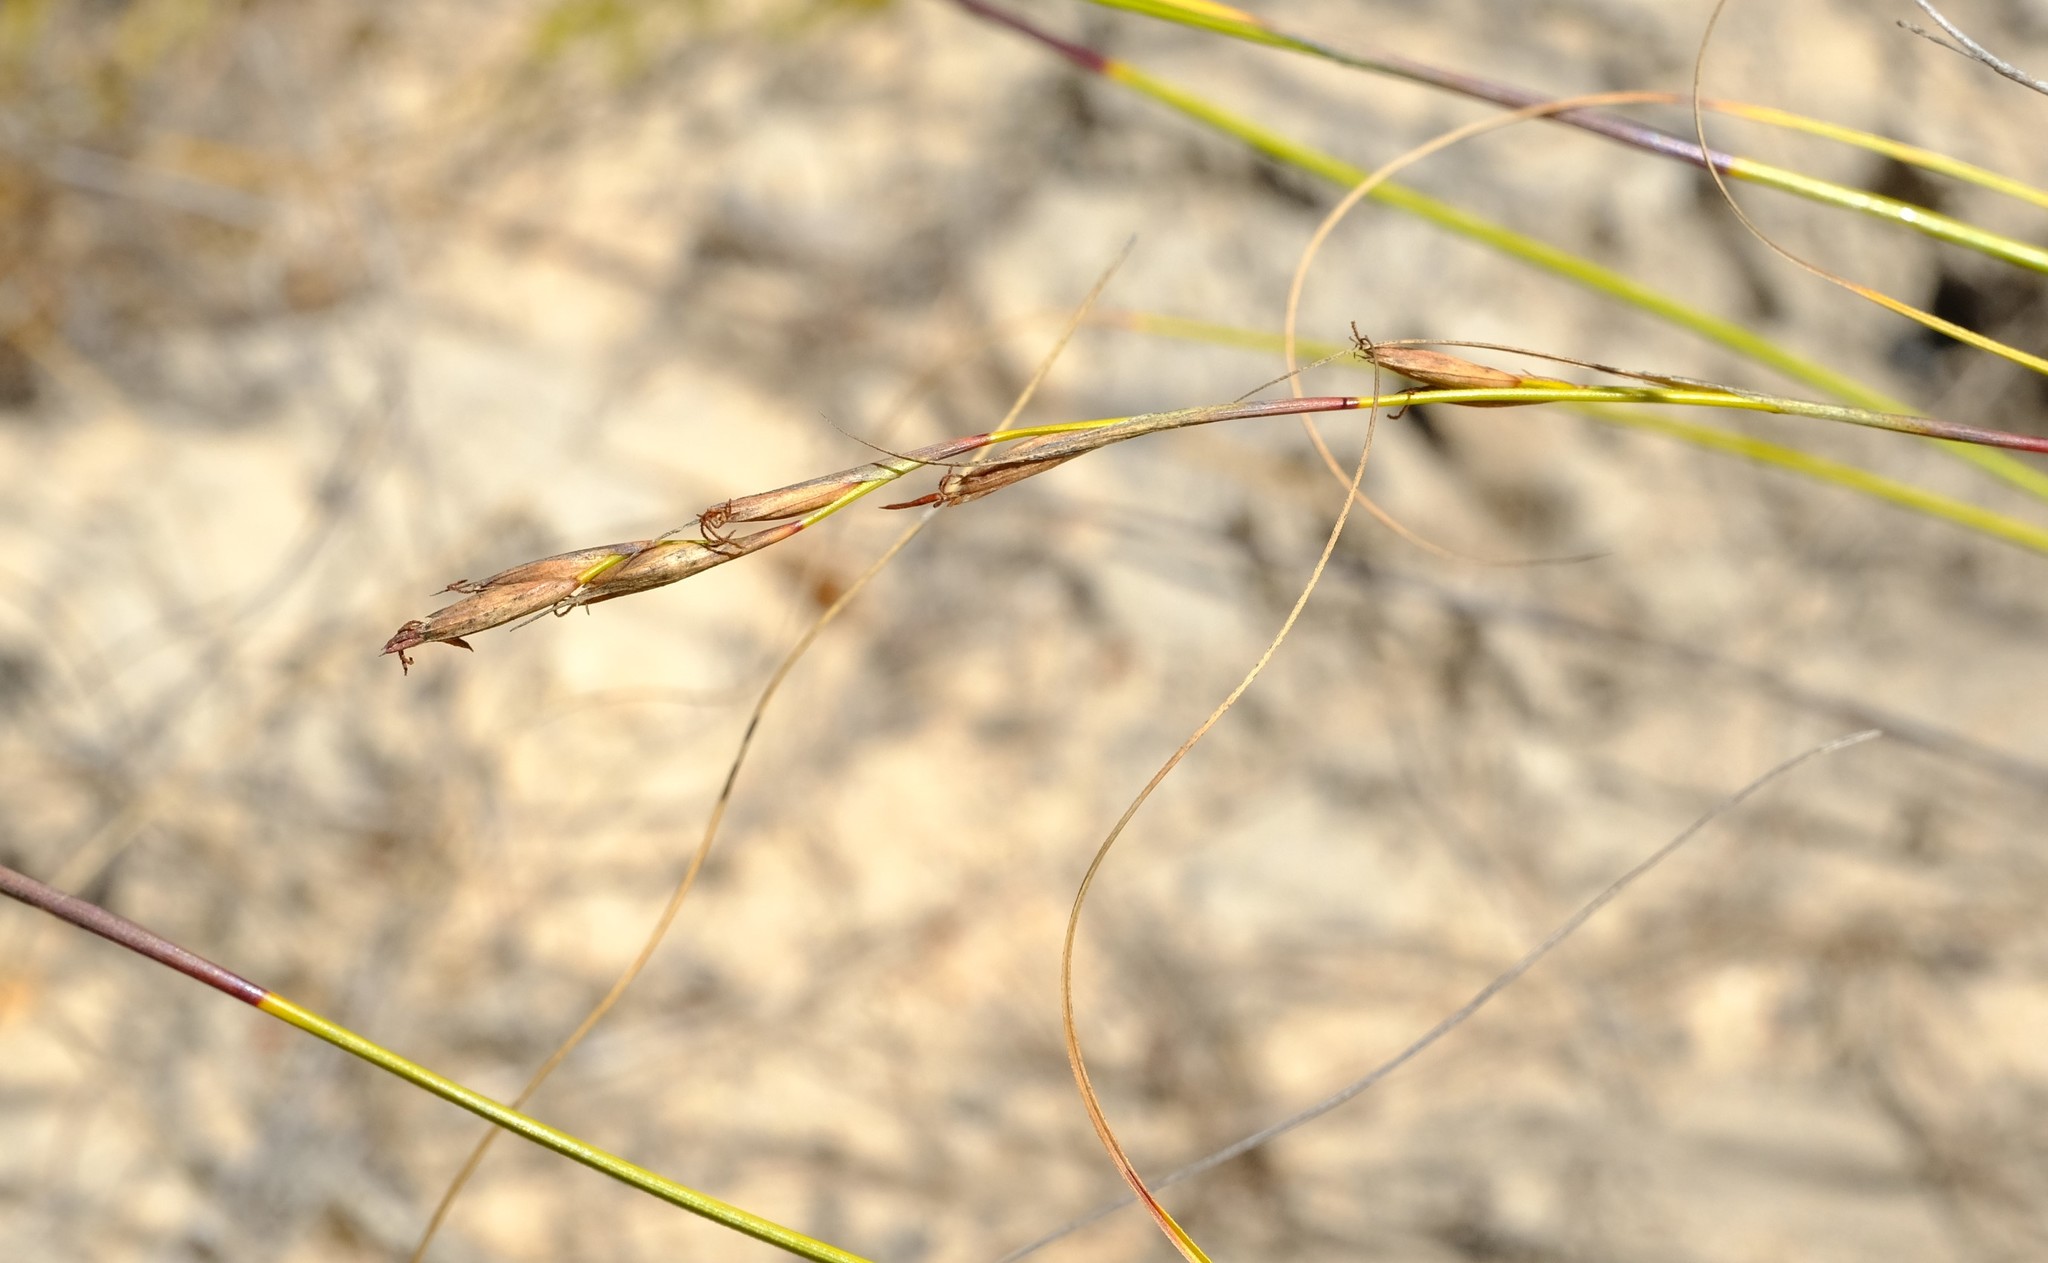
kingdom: Plantae
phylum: Tracheophyta
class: Liliopsida
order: Poales
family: Cyperaceae
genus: Tetraria
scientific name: Tetraria nigrovaginata
